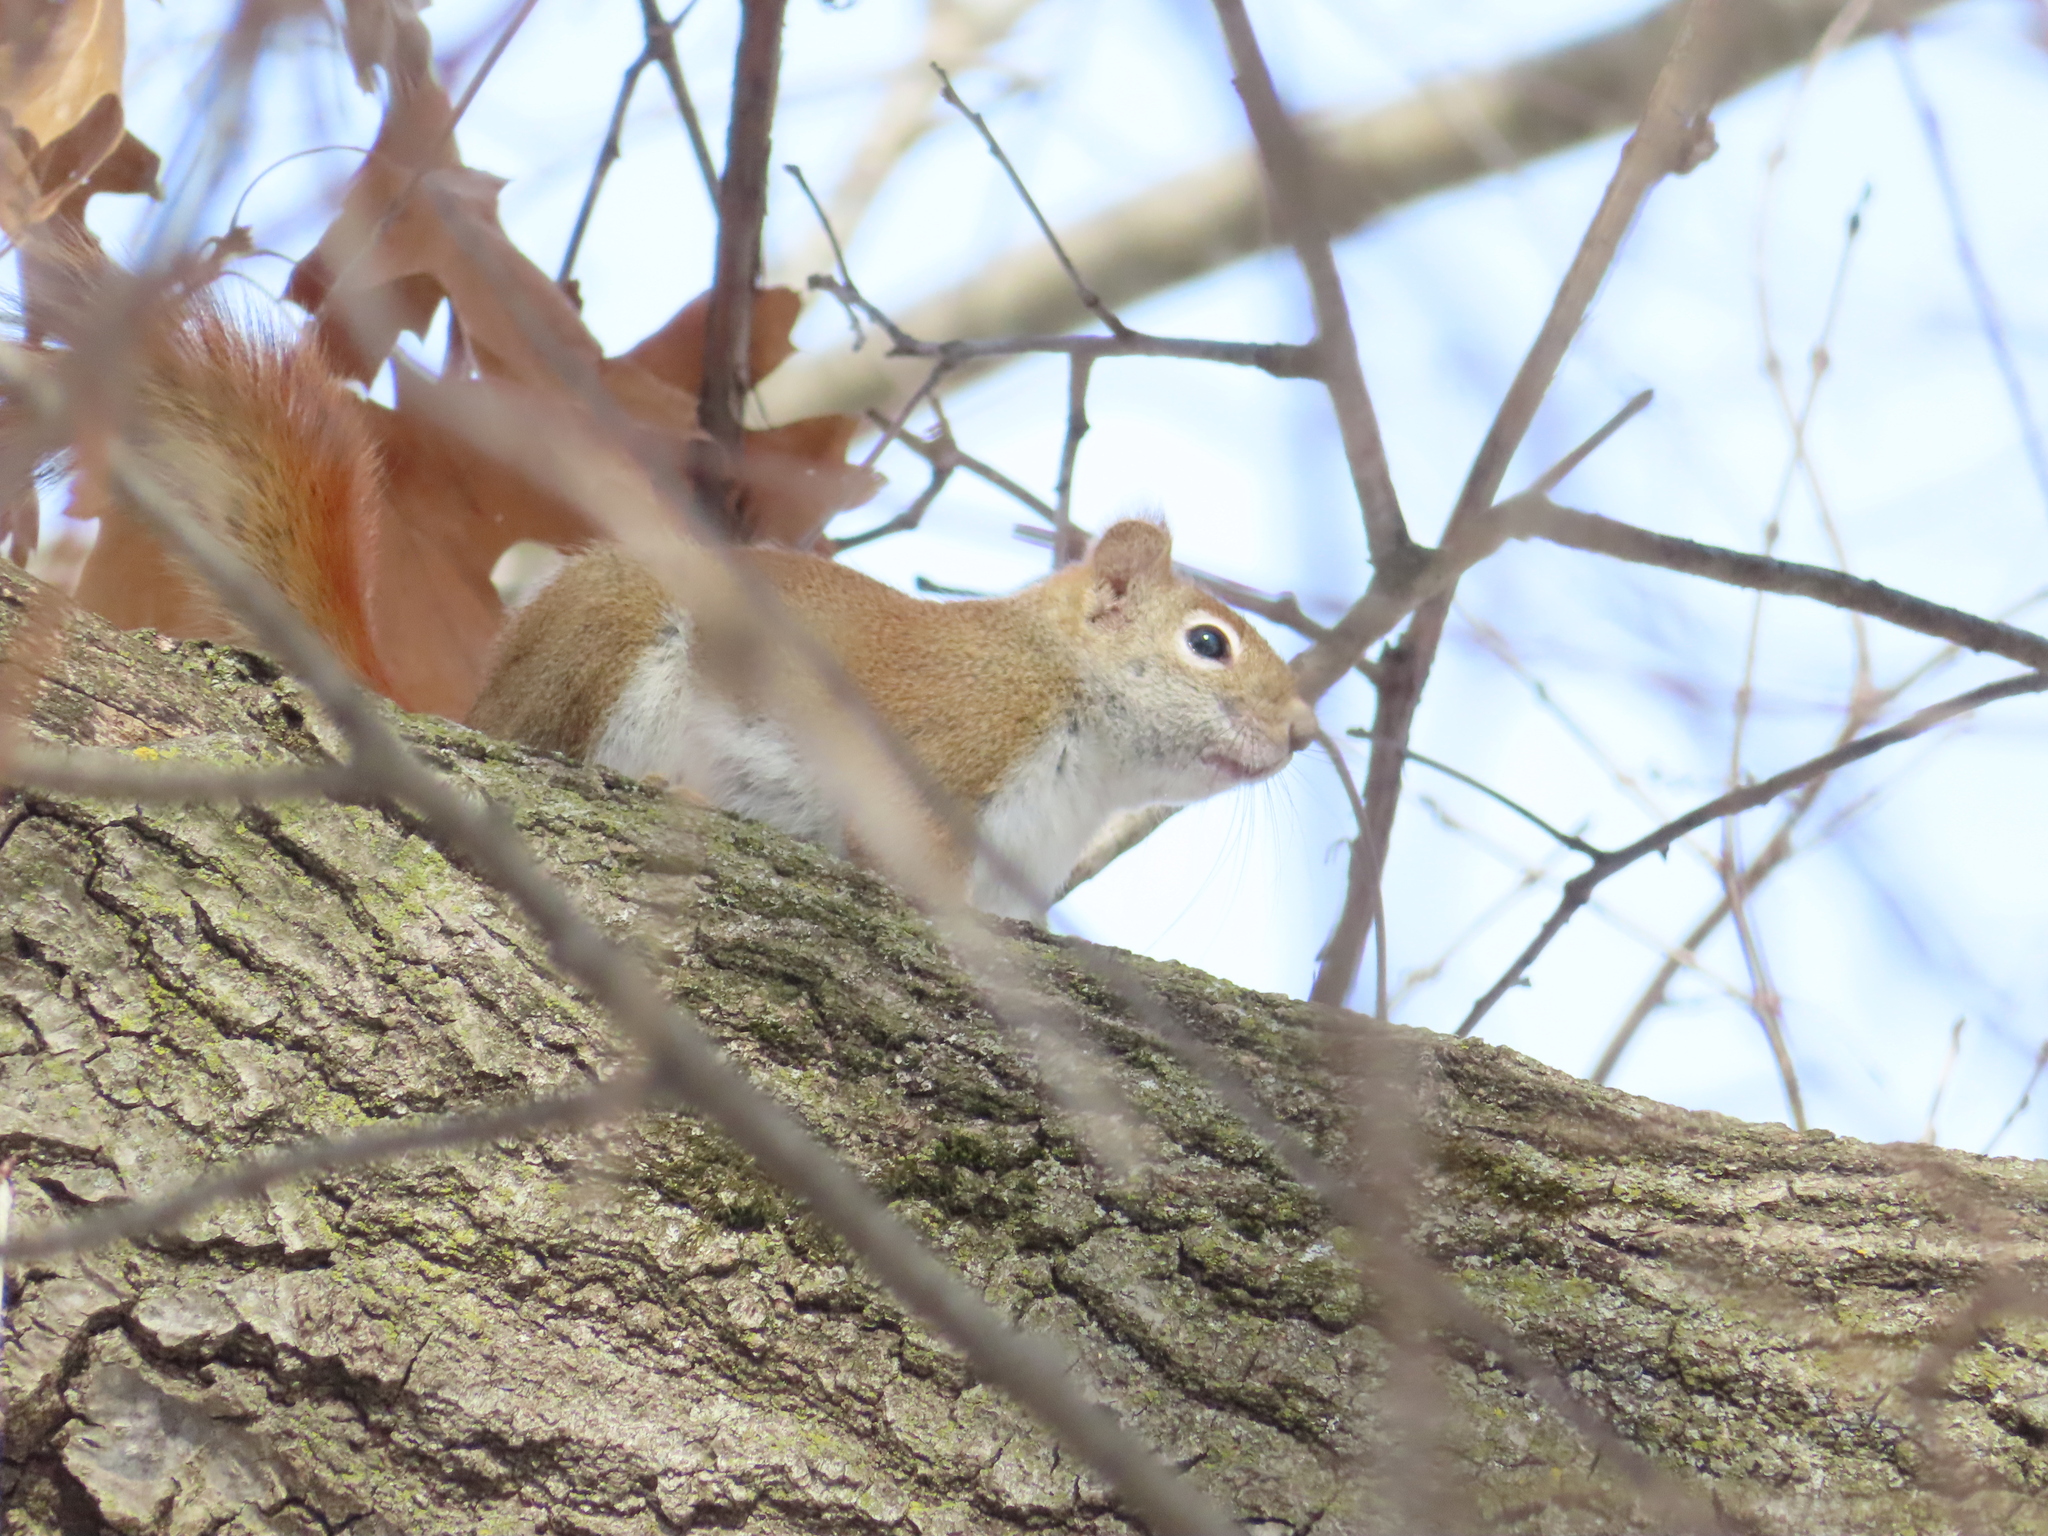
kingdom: Animalia
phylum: Chordata
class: Mammalia
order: Rodentia
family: Sciuridae
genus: Tamiasciurus
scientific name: Tamiasciurus hudsonicus
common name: Red squirrel
